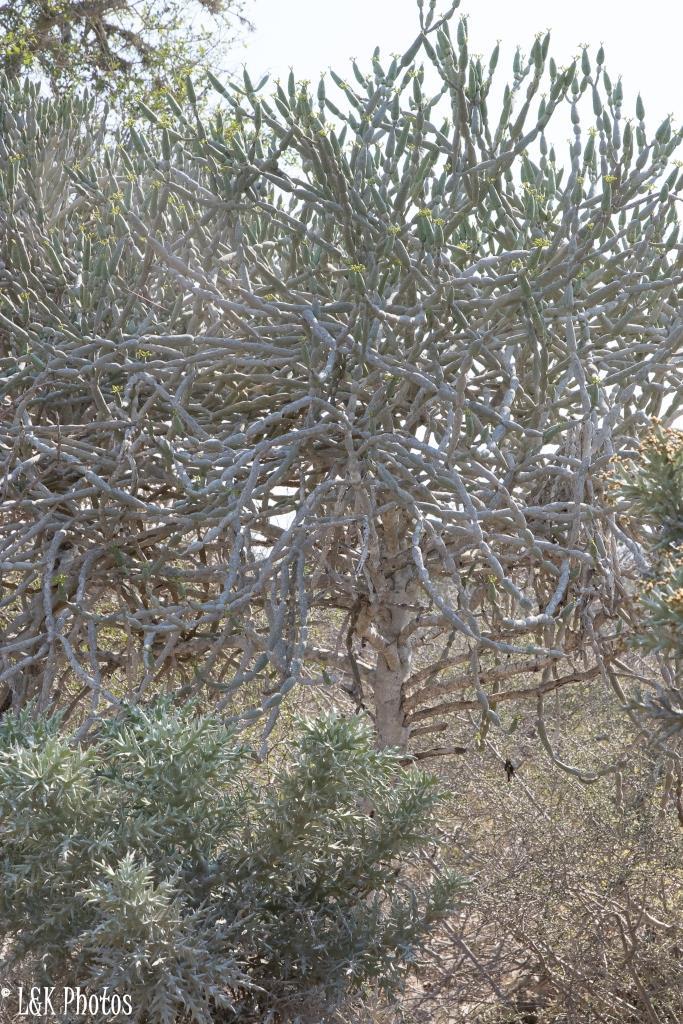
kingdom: Plantae
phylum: Tracheophyta
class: Magnoliopsida
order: Malpighiales
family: Euphorbiaceae
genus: Euphorbia
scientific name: Euphorbia alluaudii
